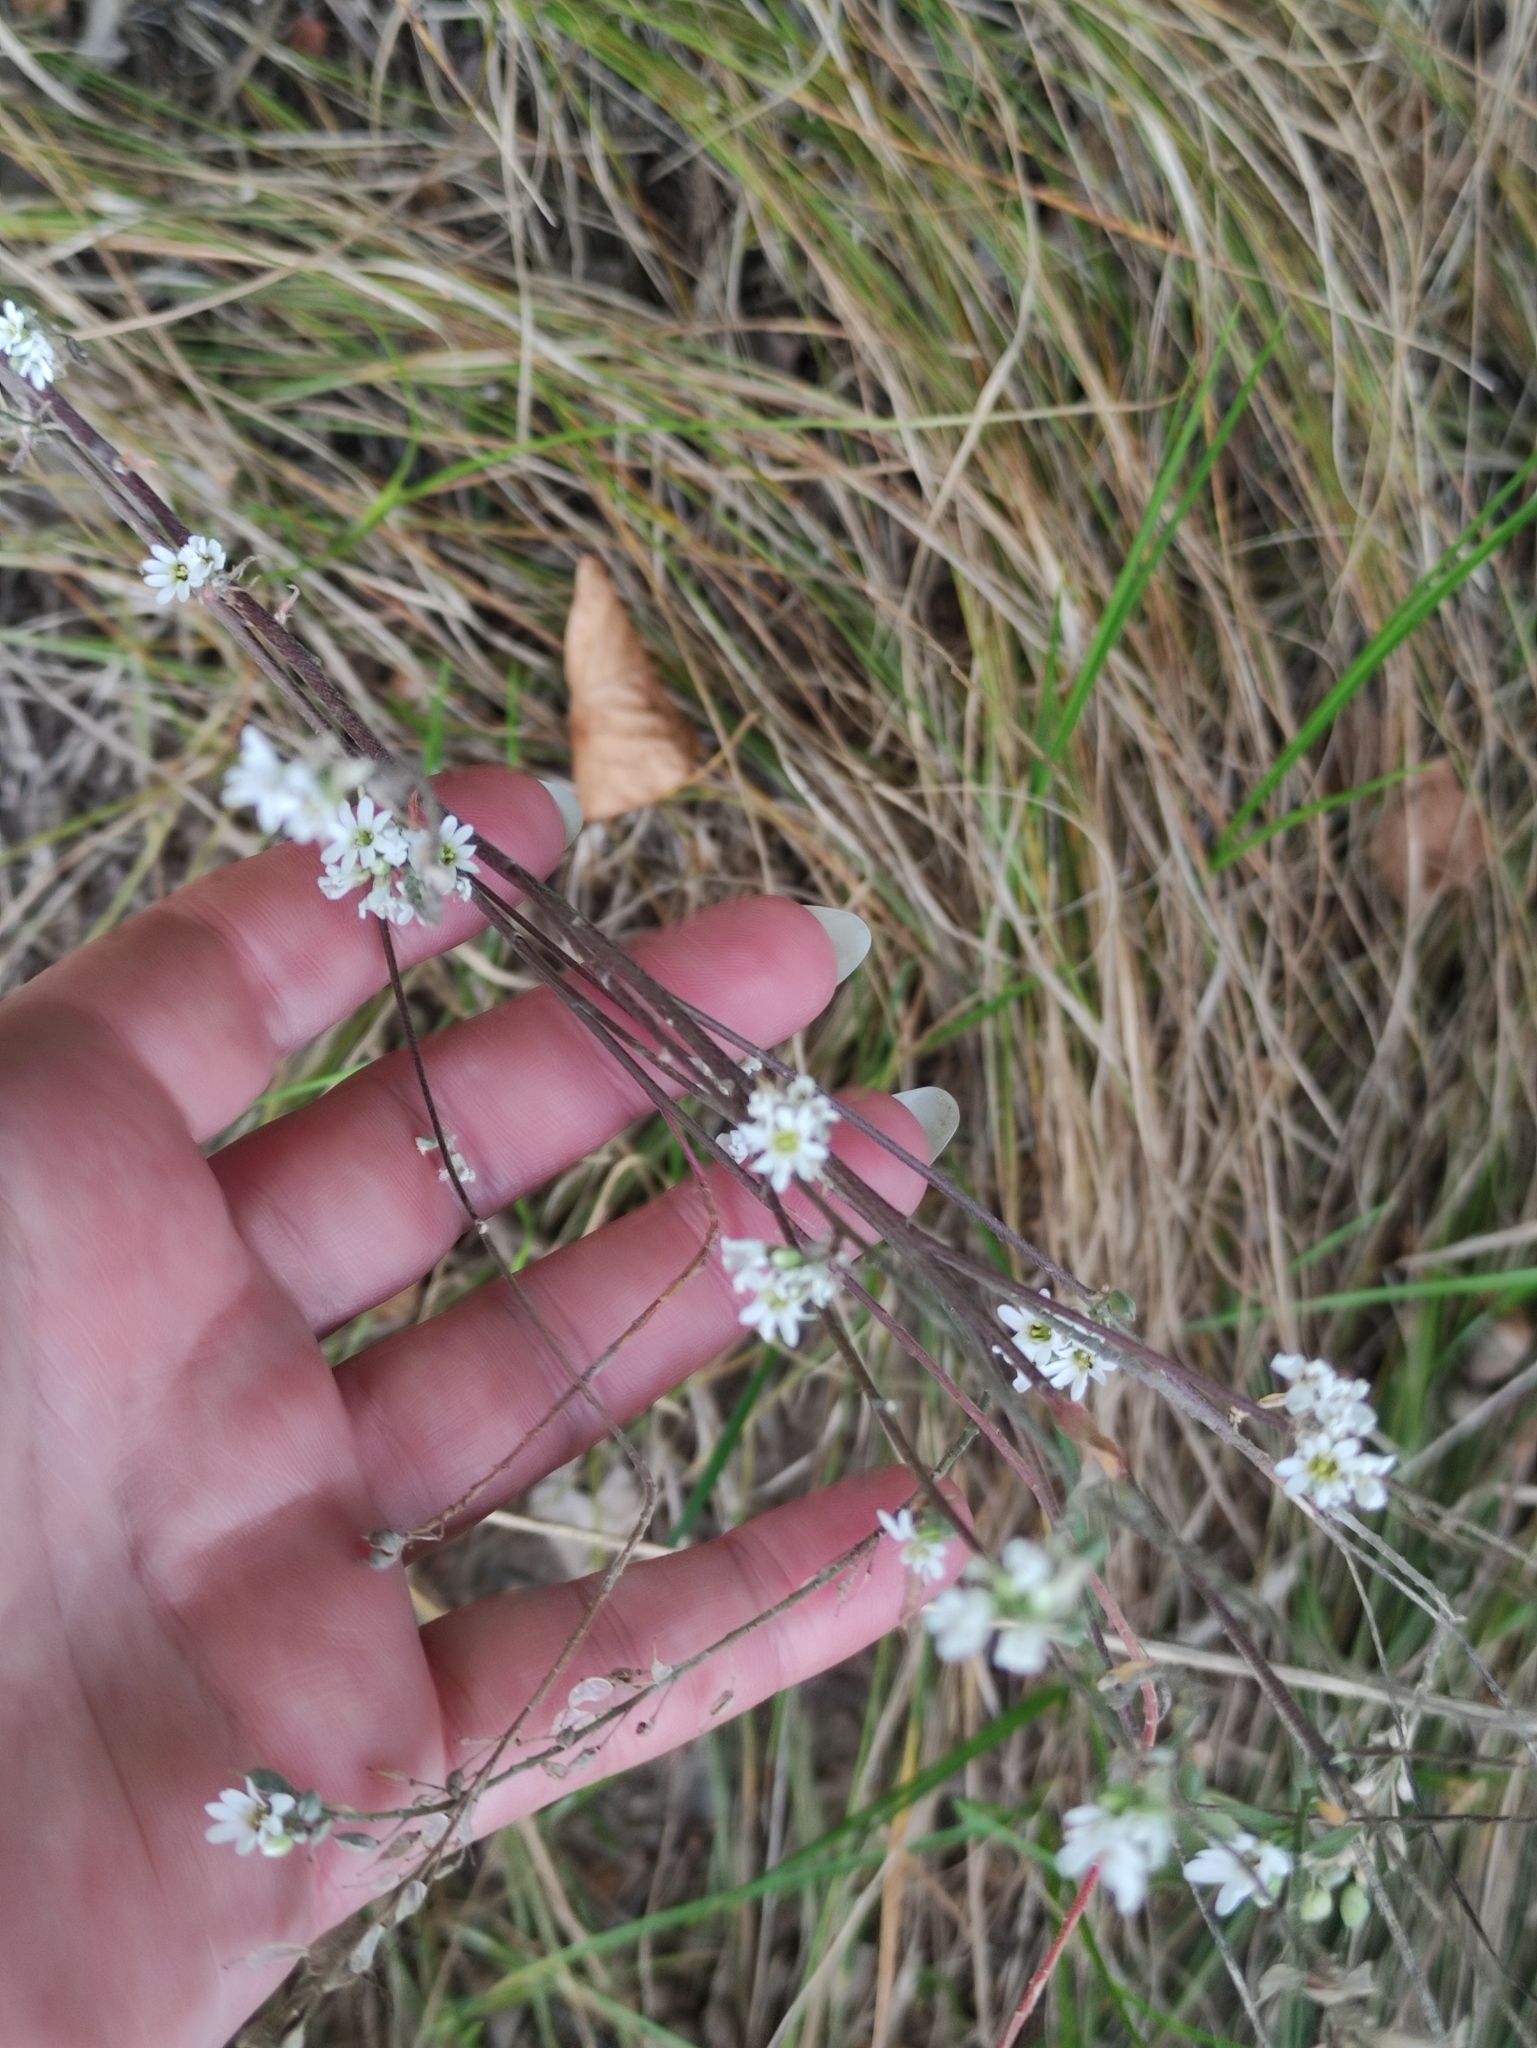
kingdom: Plantae
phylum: Tracheophyta
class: Magnoliopsida
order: Brassicales
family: Brassicaceae
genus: Berteroa
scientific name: Berteroa incana
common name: Hoary alison
